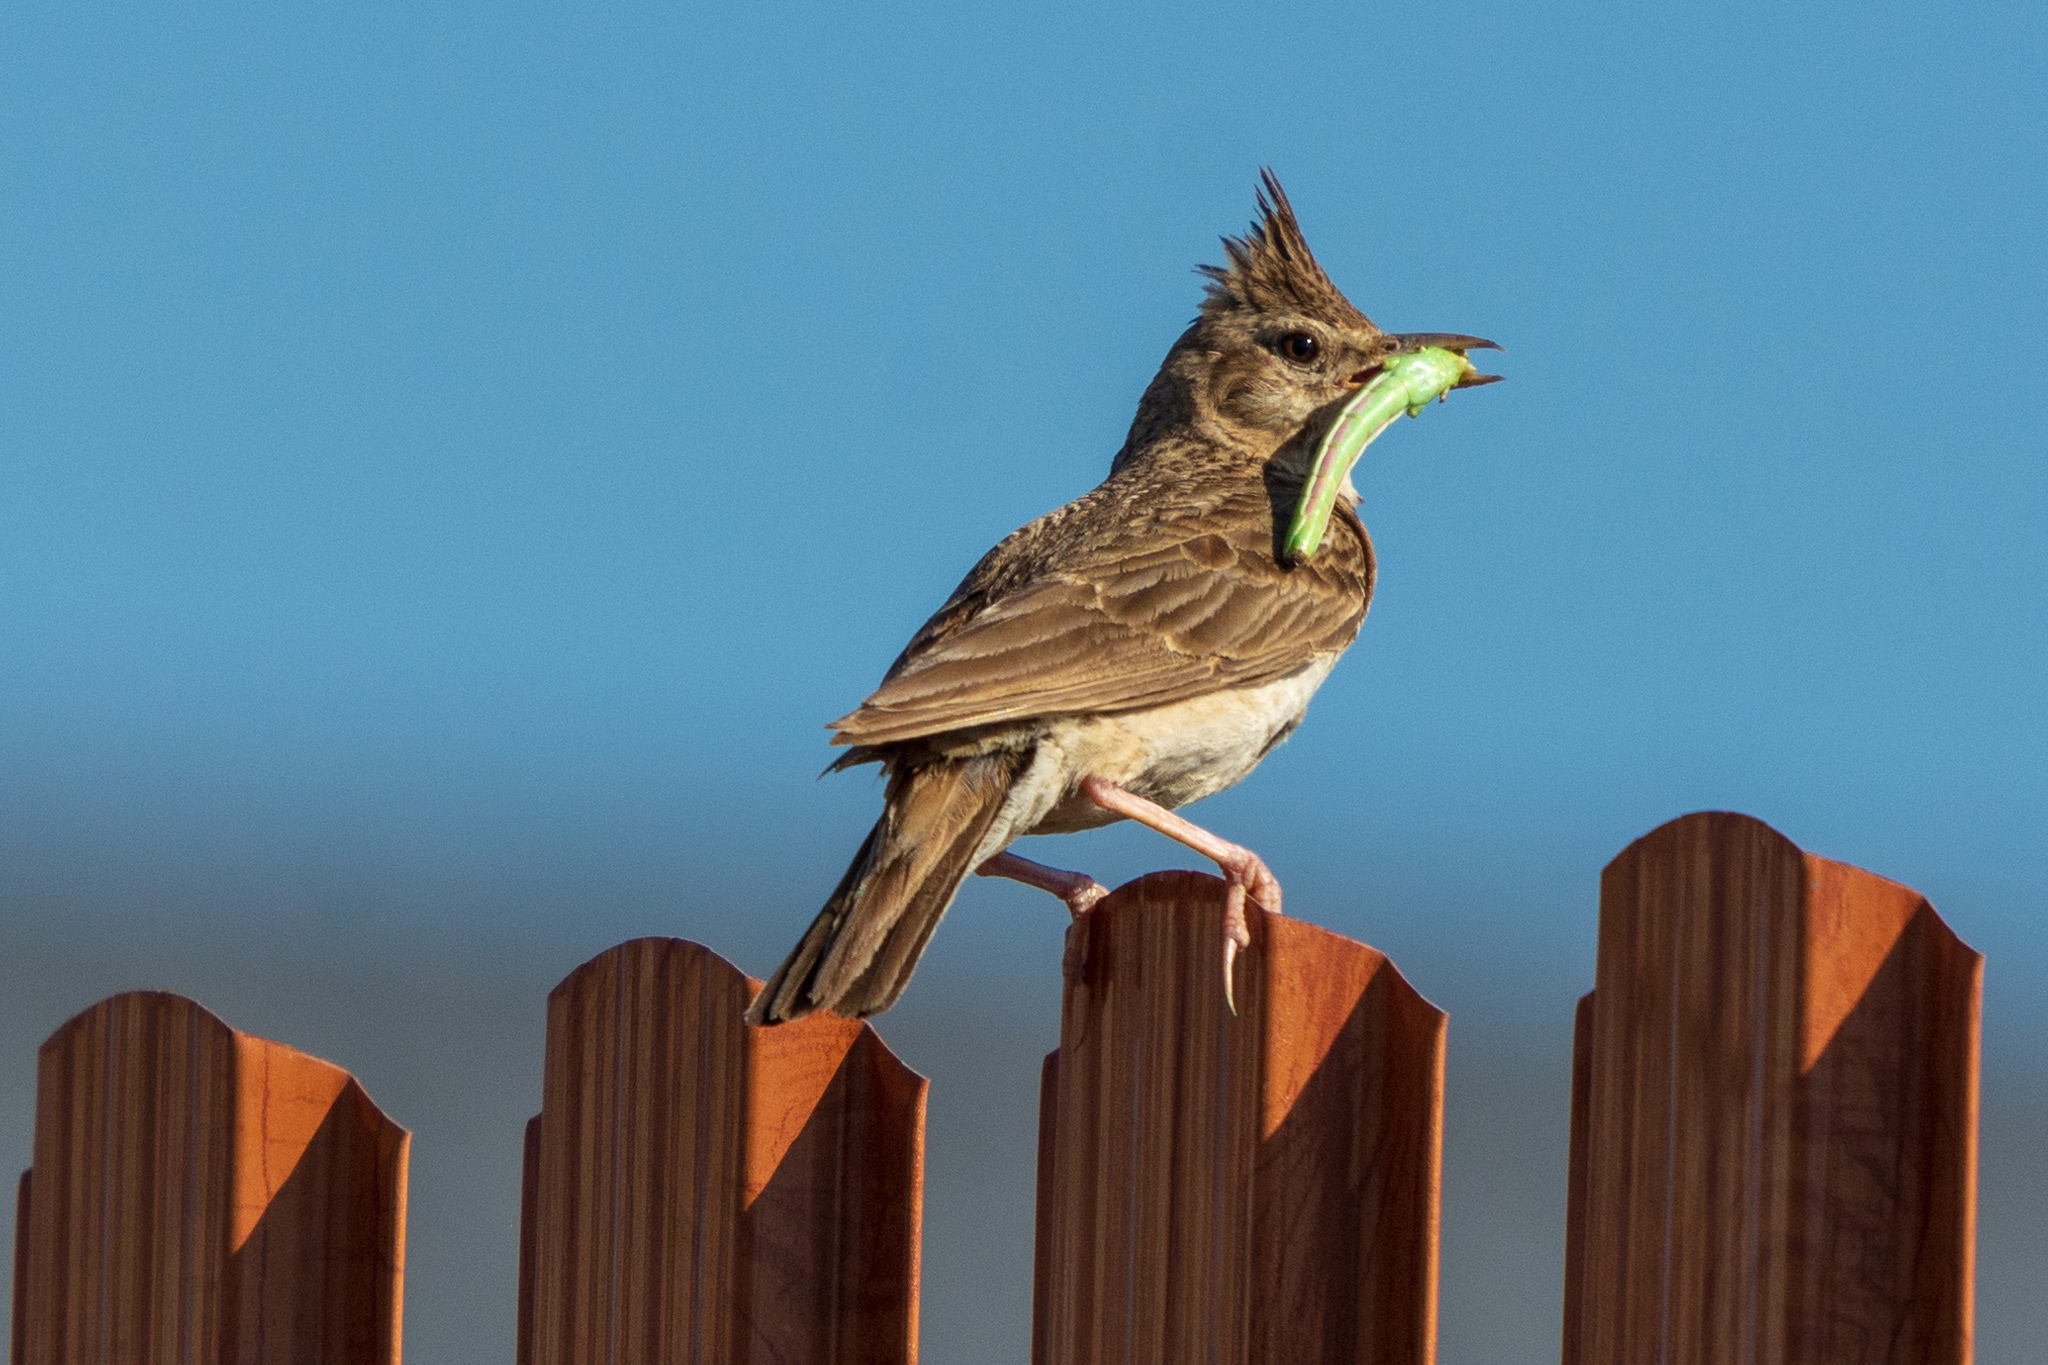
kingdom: Animalia
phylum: Chordata
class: Aves
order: Passeriformes
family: Alaudidae
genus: Galerida
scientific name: Galerida cristata
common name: Crested lark
